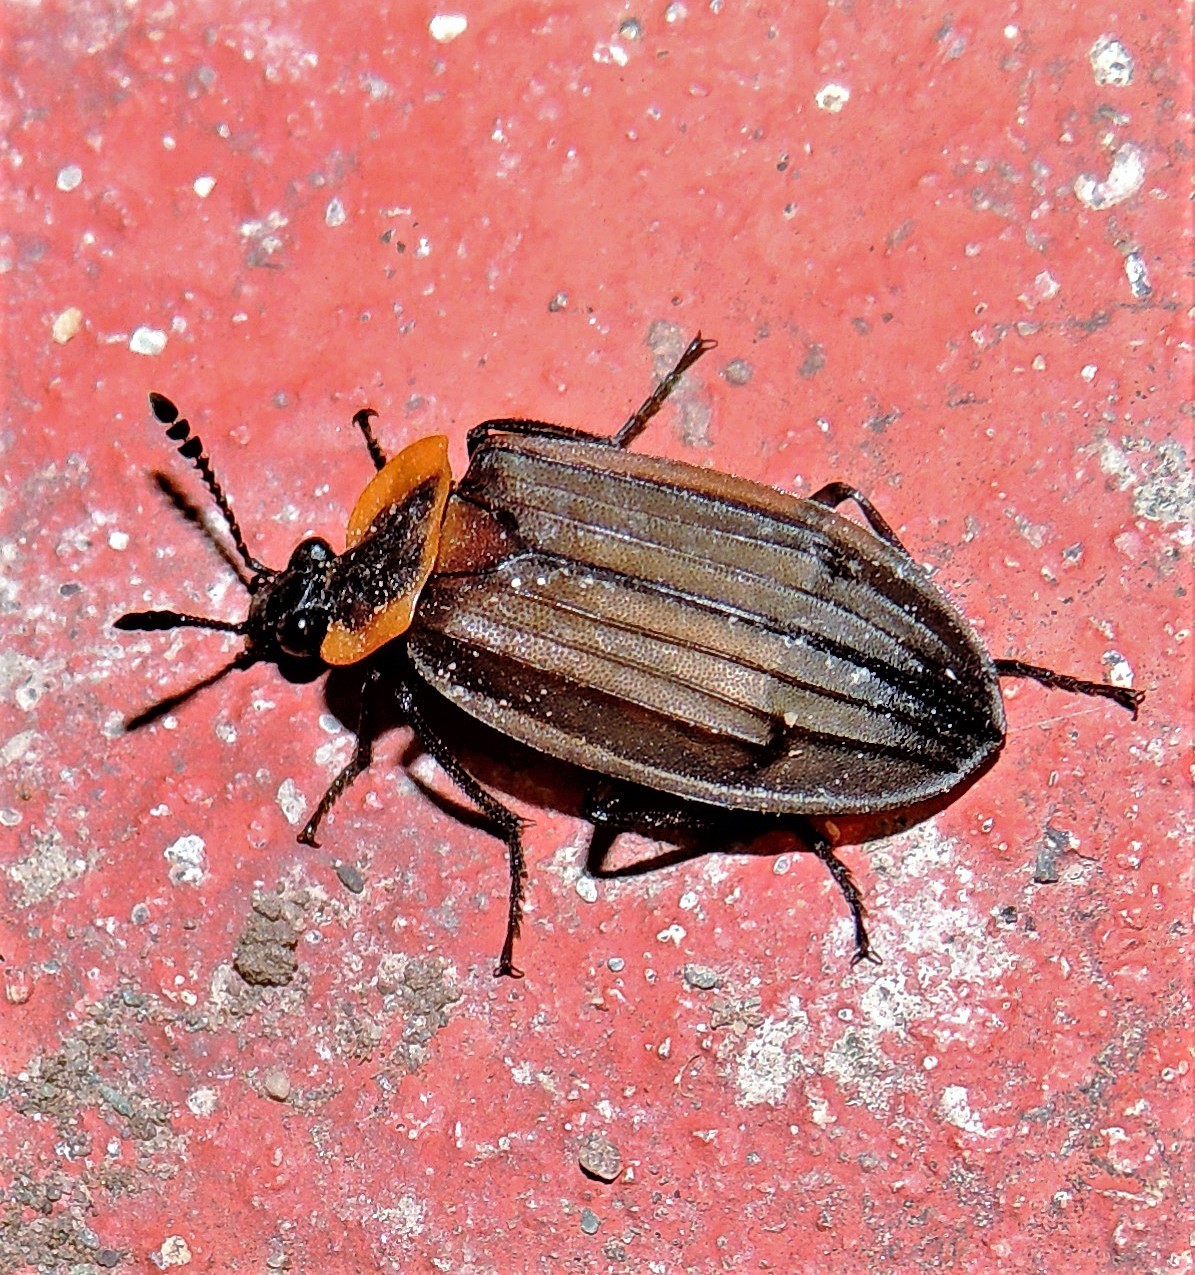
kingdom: Animalia
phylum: Arthropoda
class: Insecta
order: Coleoptera
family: Staphylinidae
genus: Oxelytrum
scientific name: Oxelytrum erythrurum
